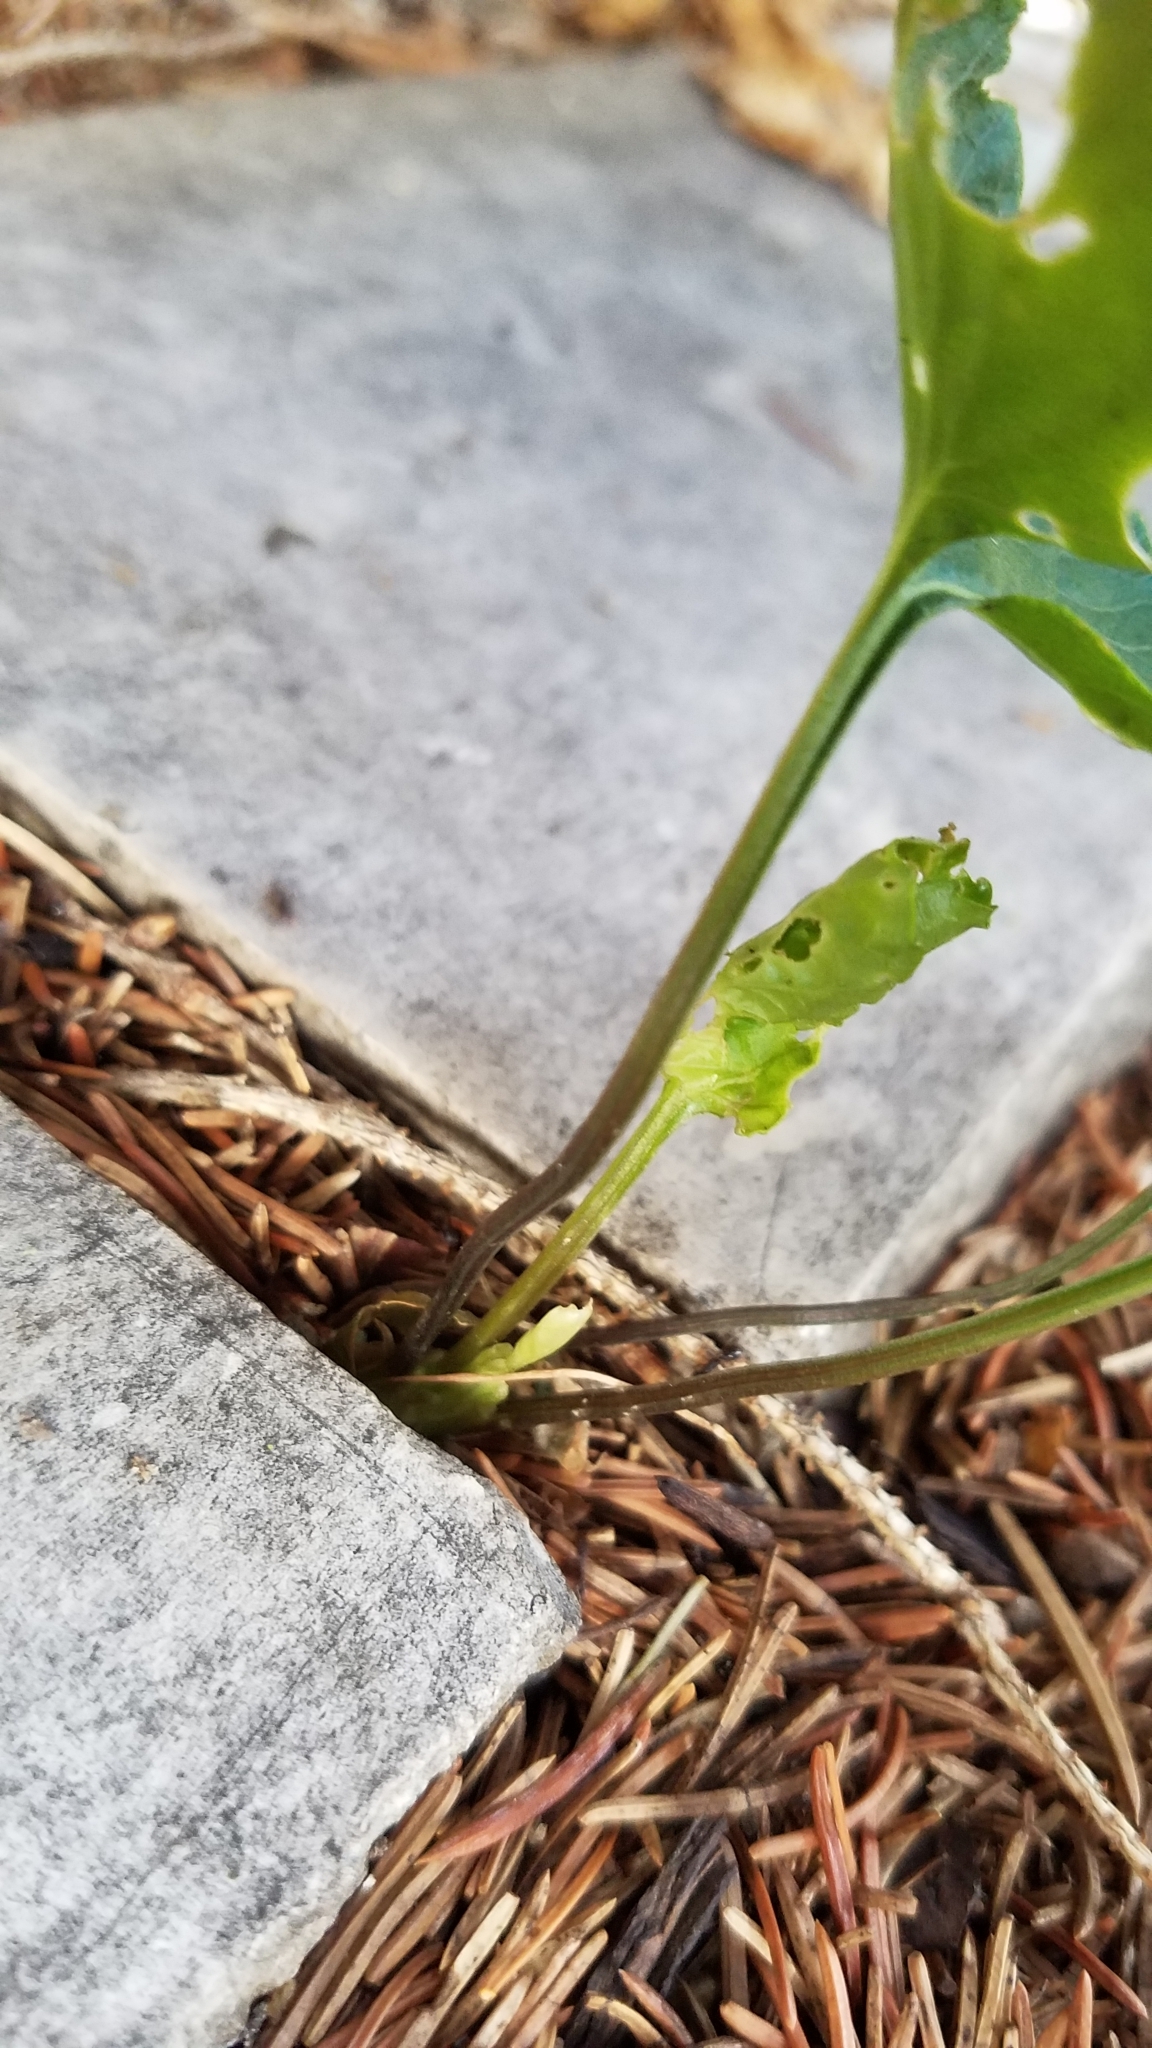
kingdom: Plantae
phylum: Tracheophyta
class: Magnoliopsida
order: Malpighiales
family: Violaceae
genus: Viola
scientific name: Viola
